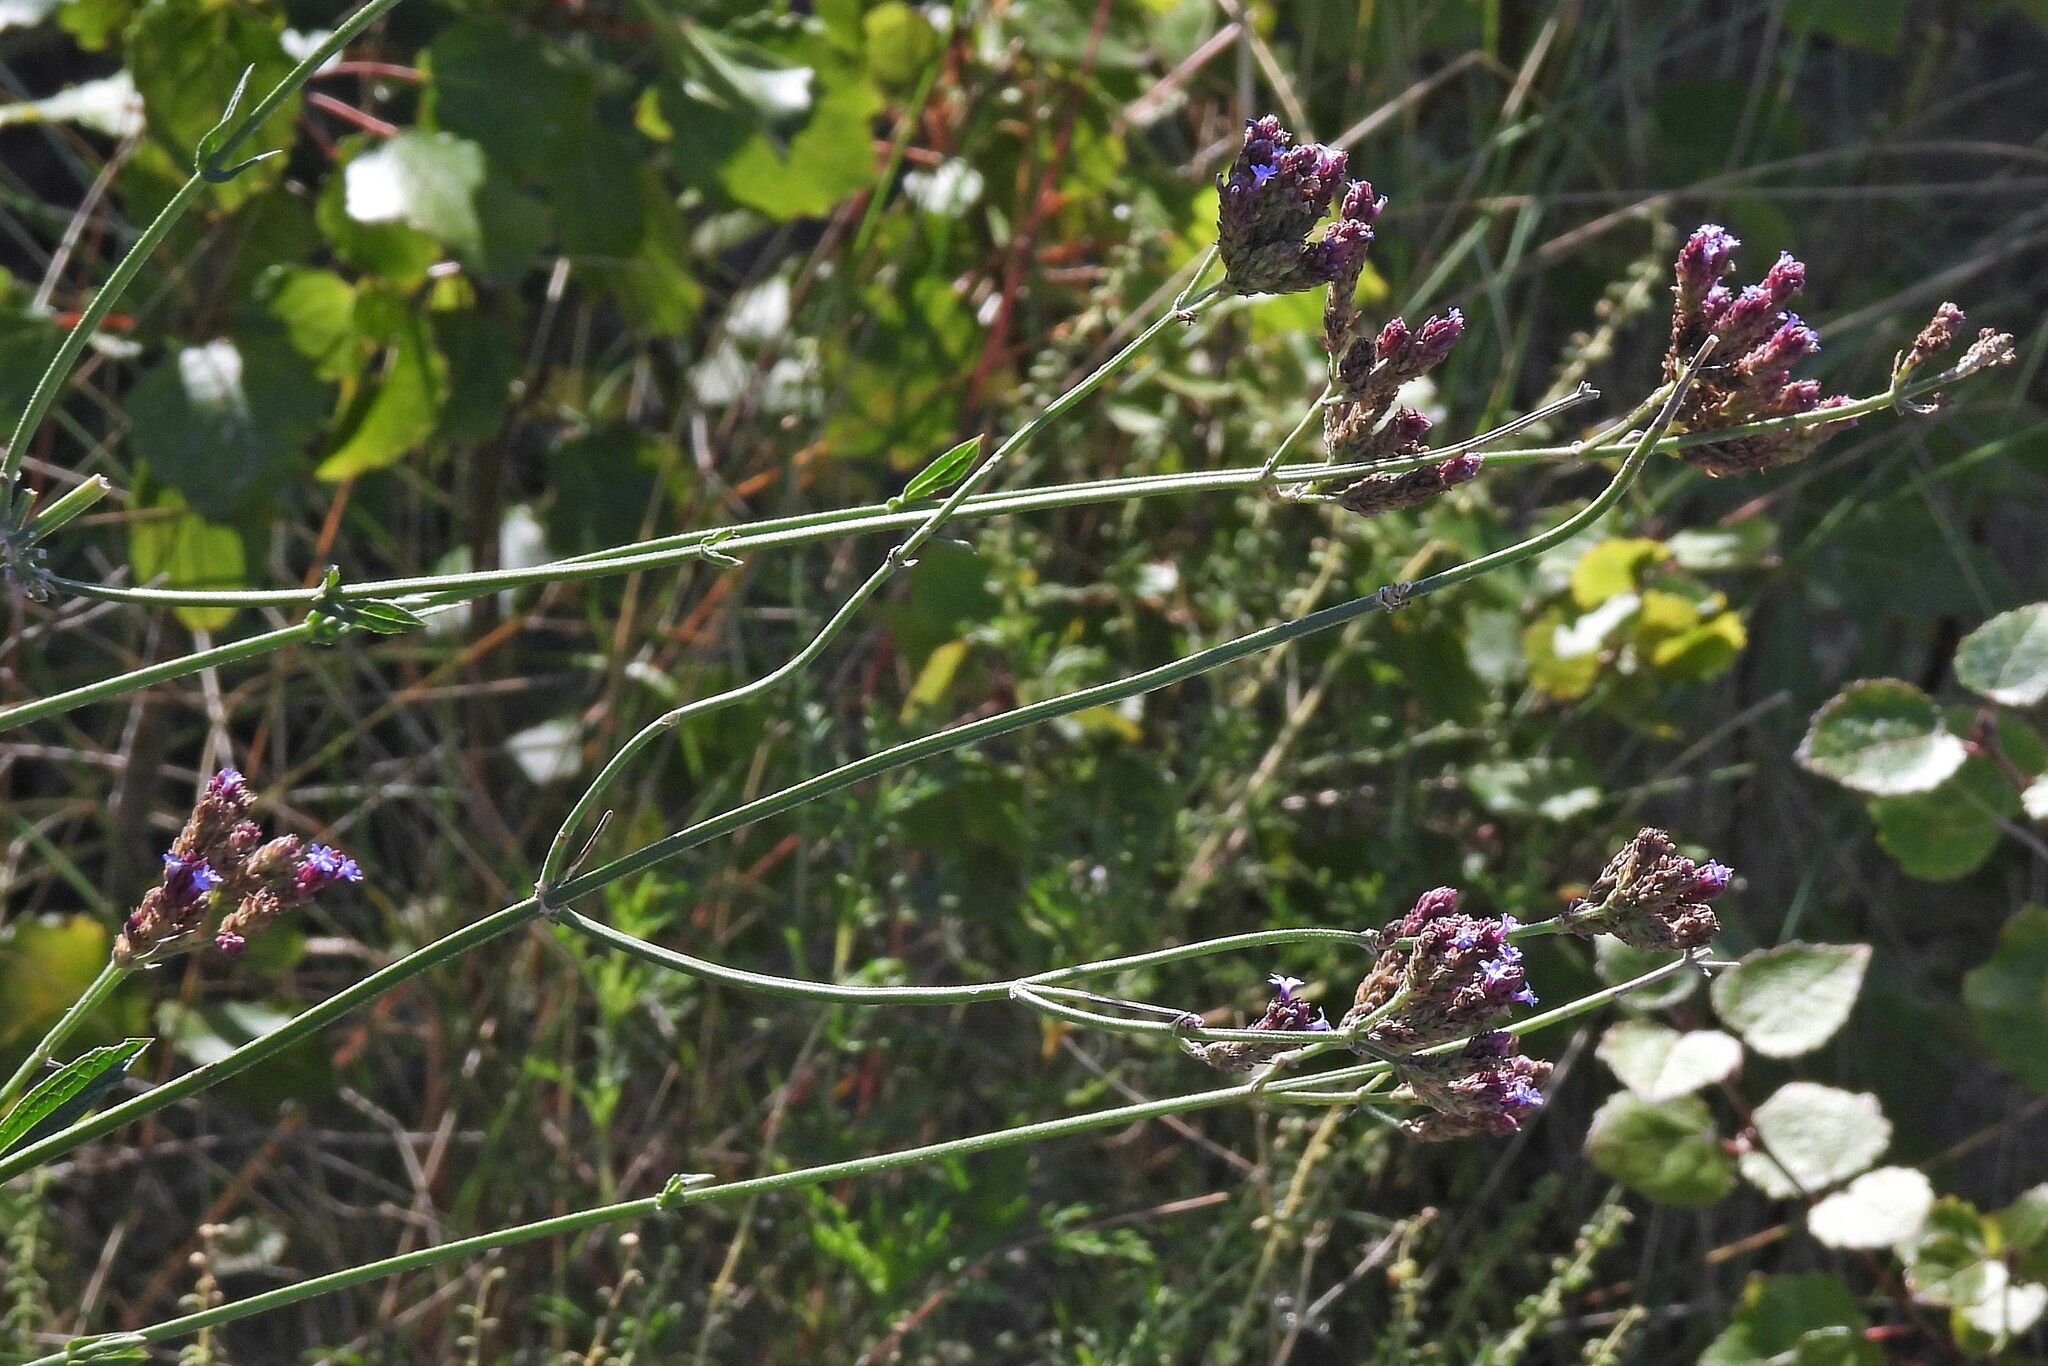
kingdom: Plantae
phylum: Tracheophyta
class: Magnoliopsida
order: Lamiales
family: Verbenaceae
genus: Verbena
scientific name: Verbena bonariensis
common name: Purpletop vervain
